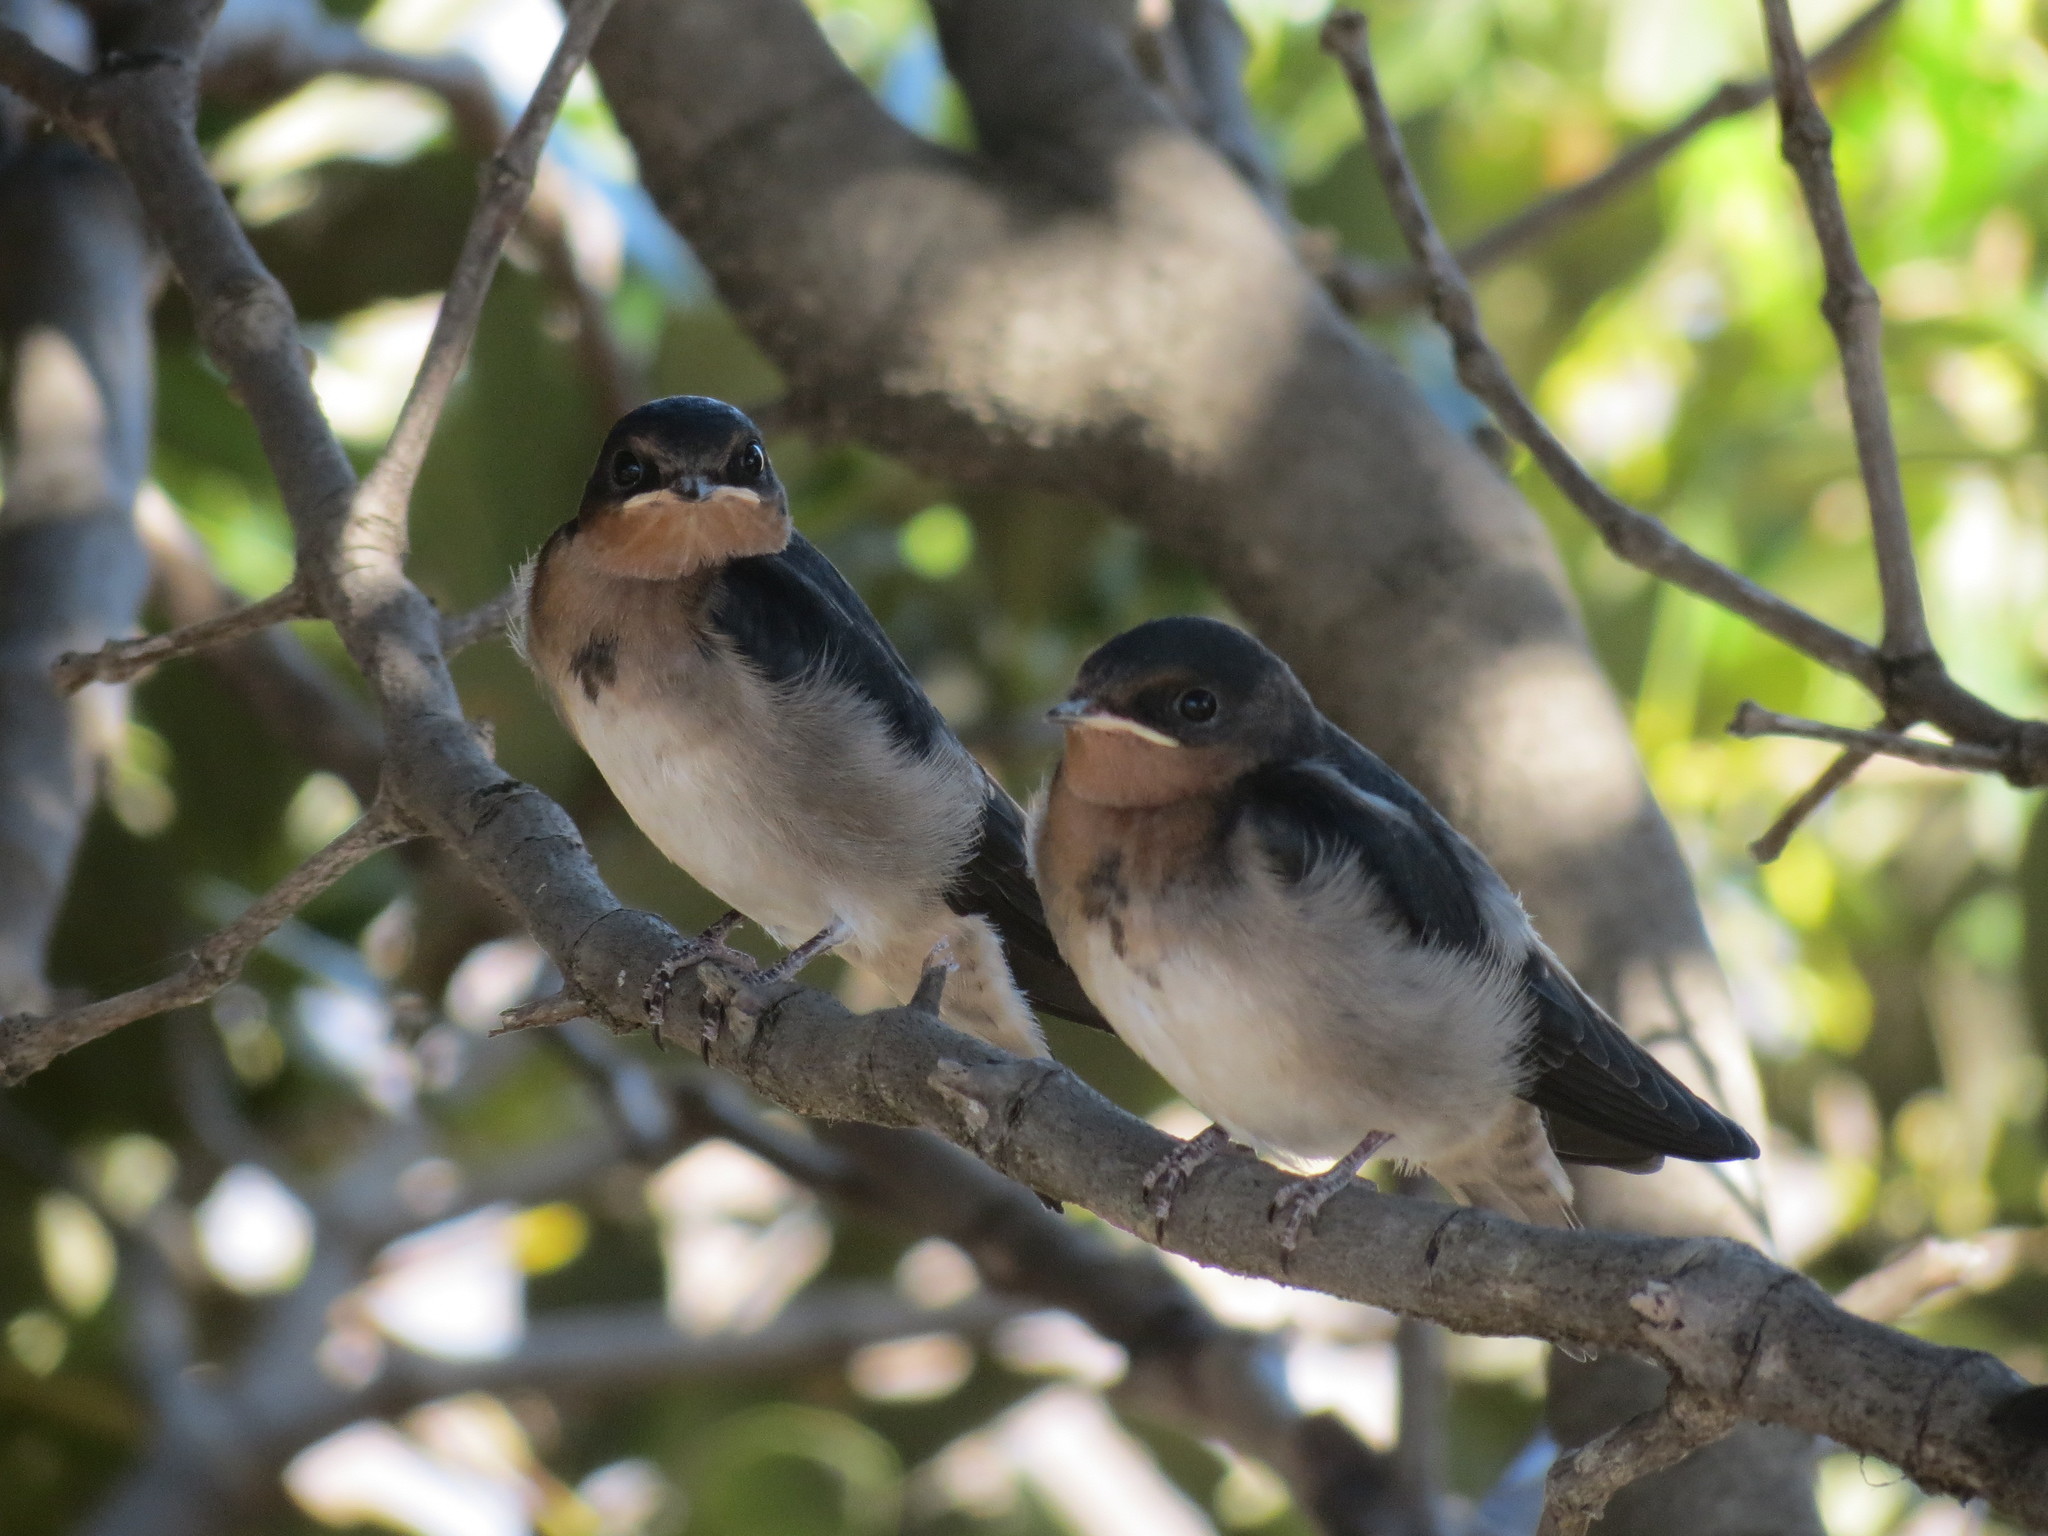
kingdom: Animalia
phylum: Chordata
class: Aves
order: Passeriformes
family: Hirundinidae
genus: Hirundo
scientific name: Hirundo neoxena
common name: Welcome swallow
